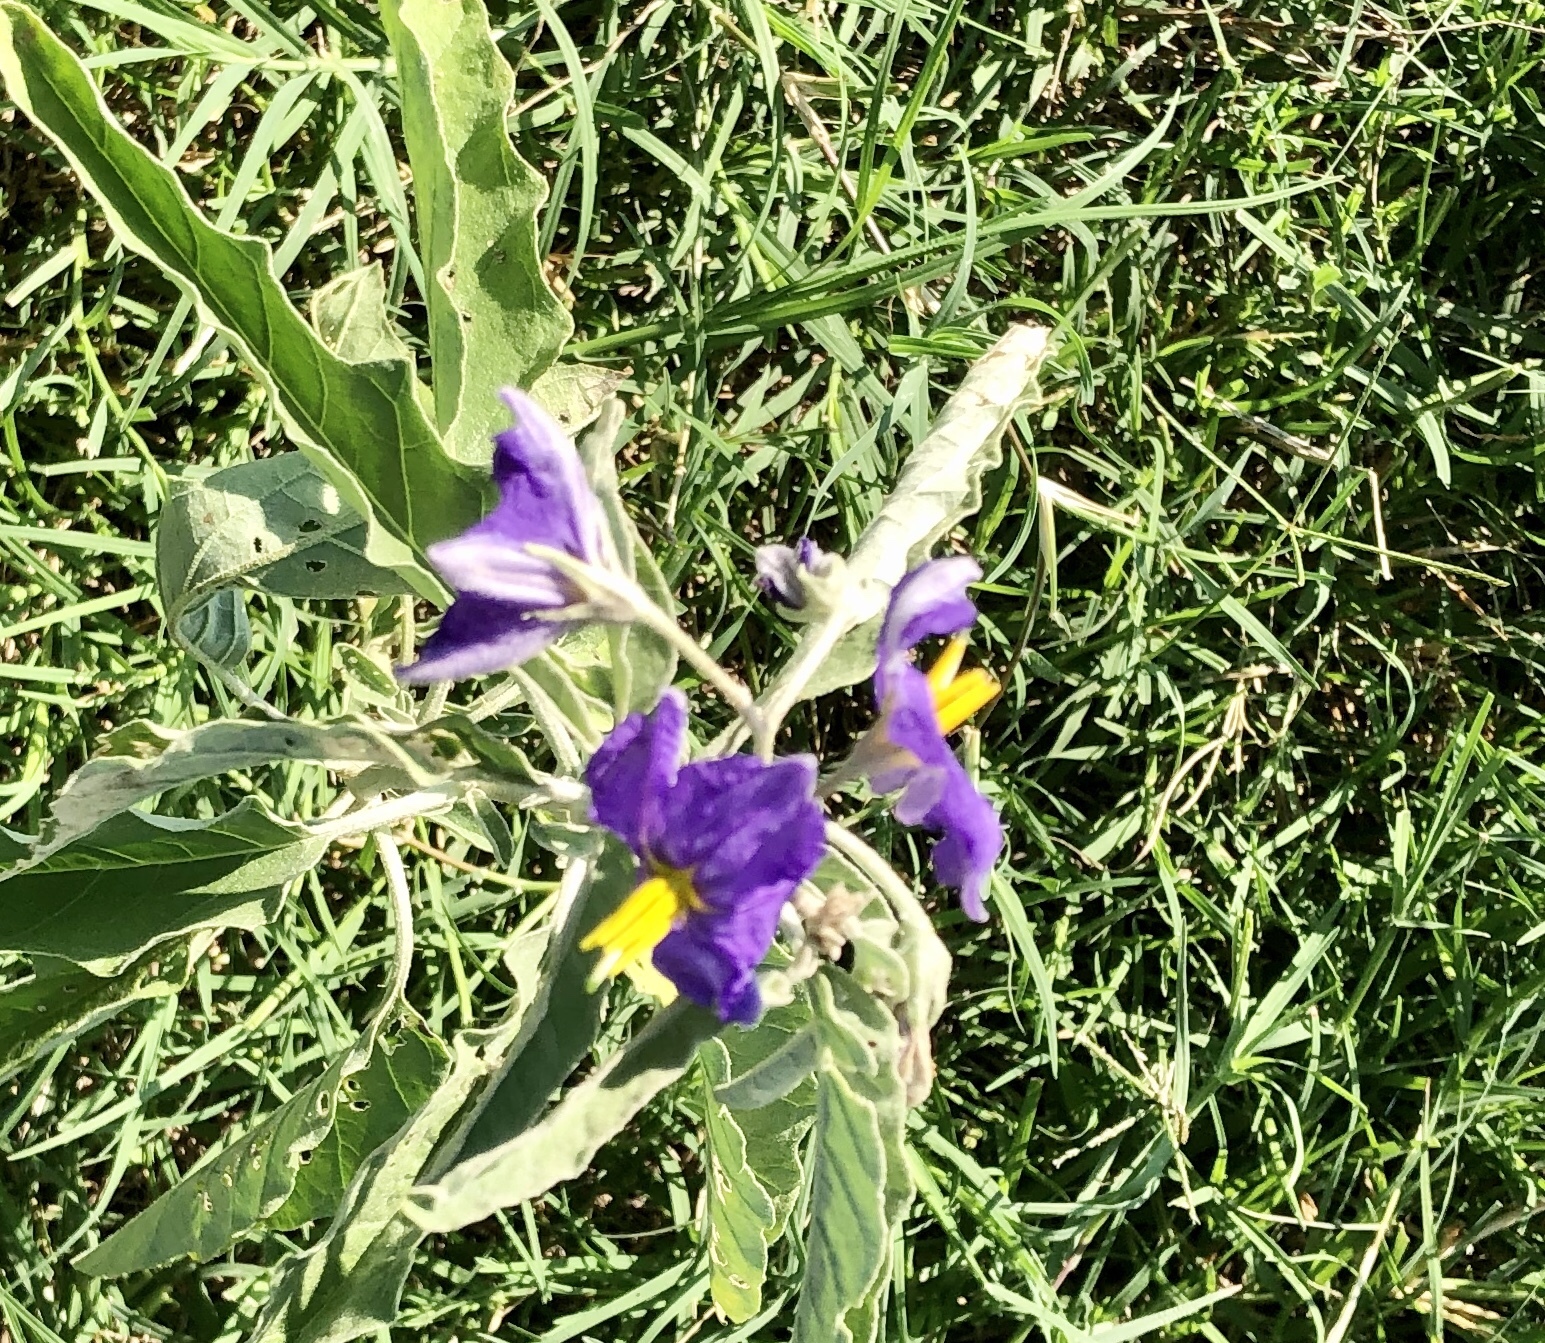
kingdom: Plantae
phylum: Tracheophyta
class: Magnoliopsida
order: Solanales
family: Solanaceae
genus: Solanum
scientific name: Solanum elaeagnifolium
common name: Silverleaf nightshade
